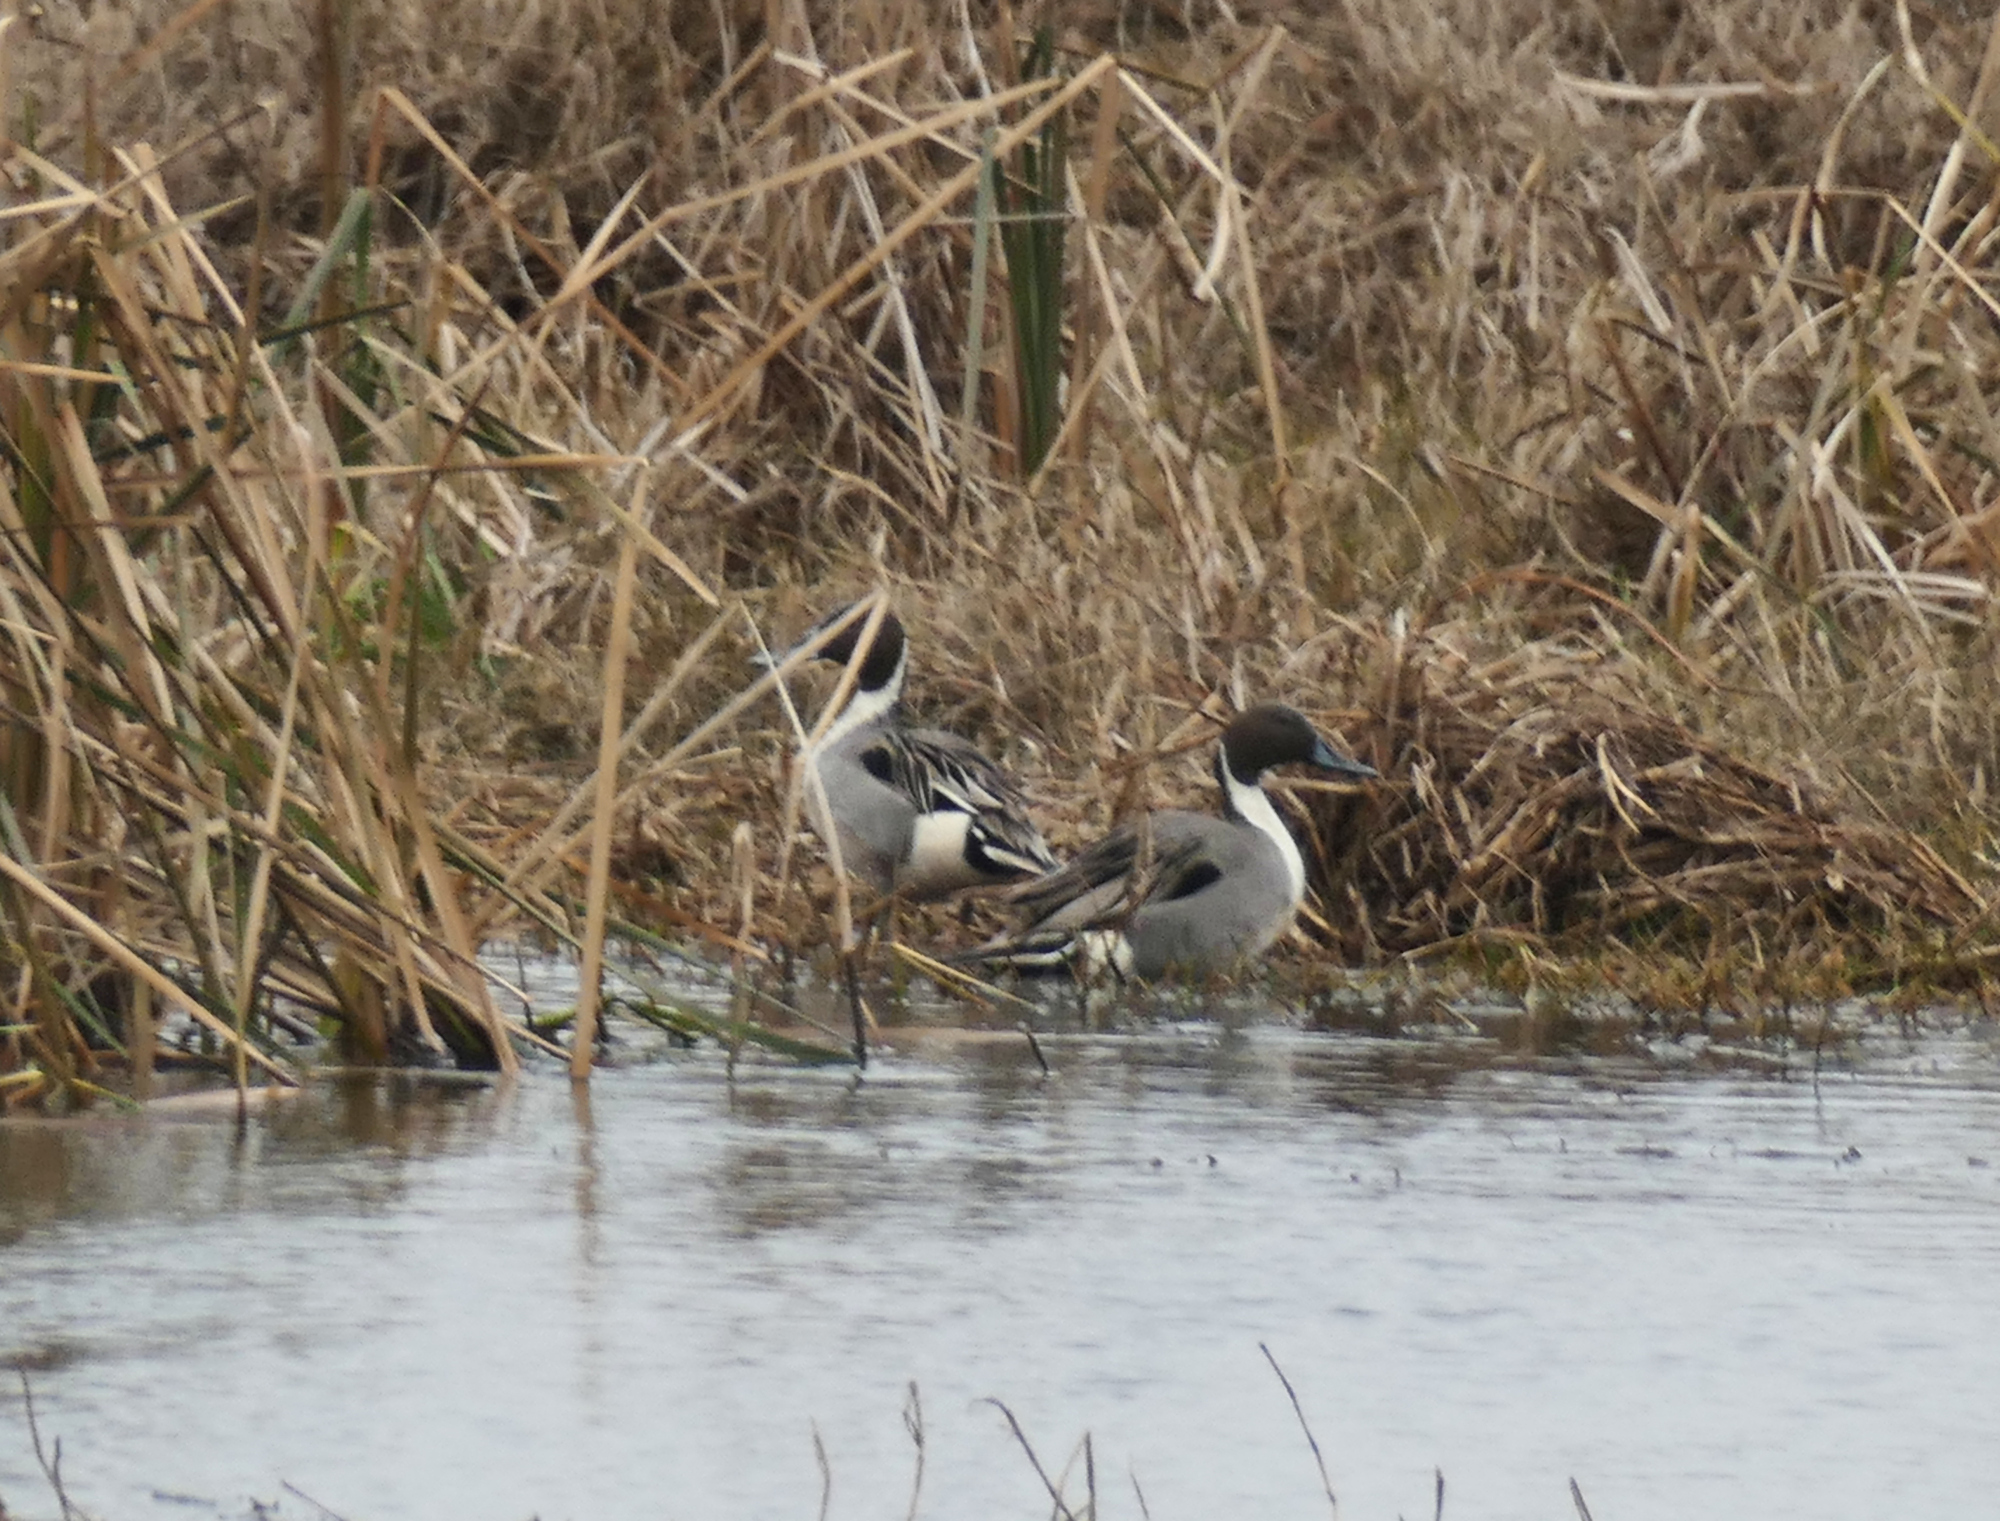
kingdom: Animalia
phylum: Chordata
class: Aves
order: Anseriformes
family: Anatidae
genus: Anas
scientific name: Anas acuta
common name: Northern pintail
